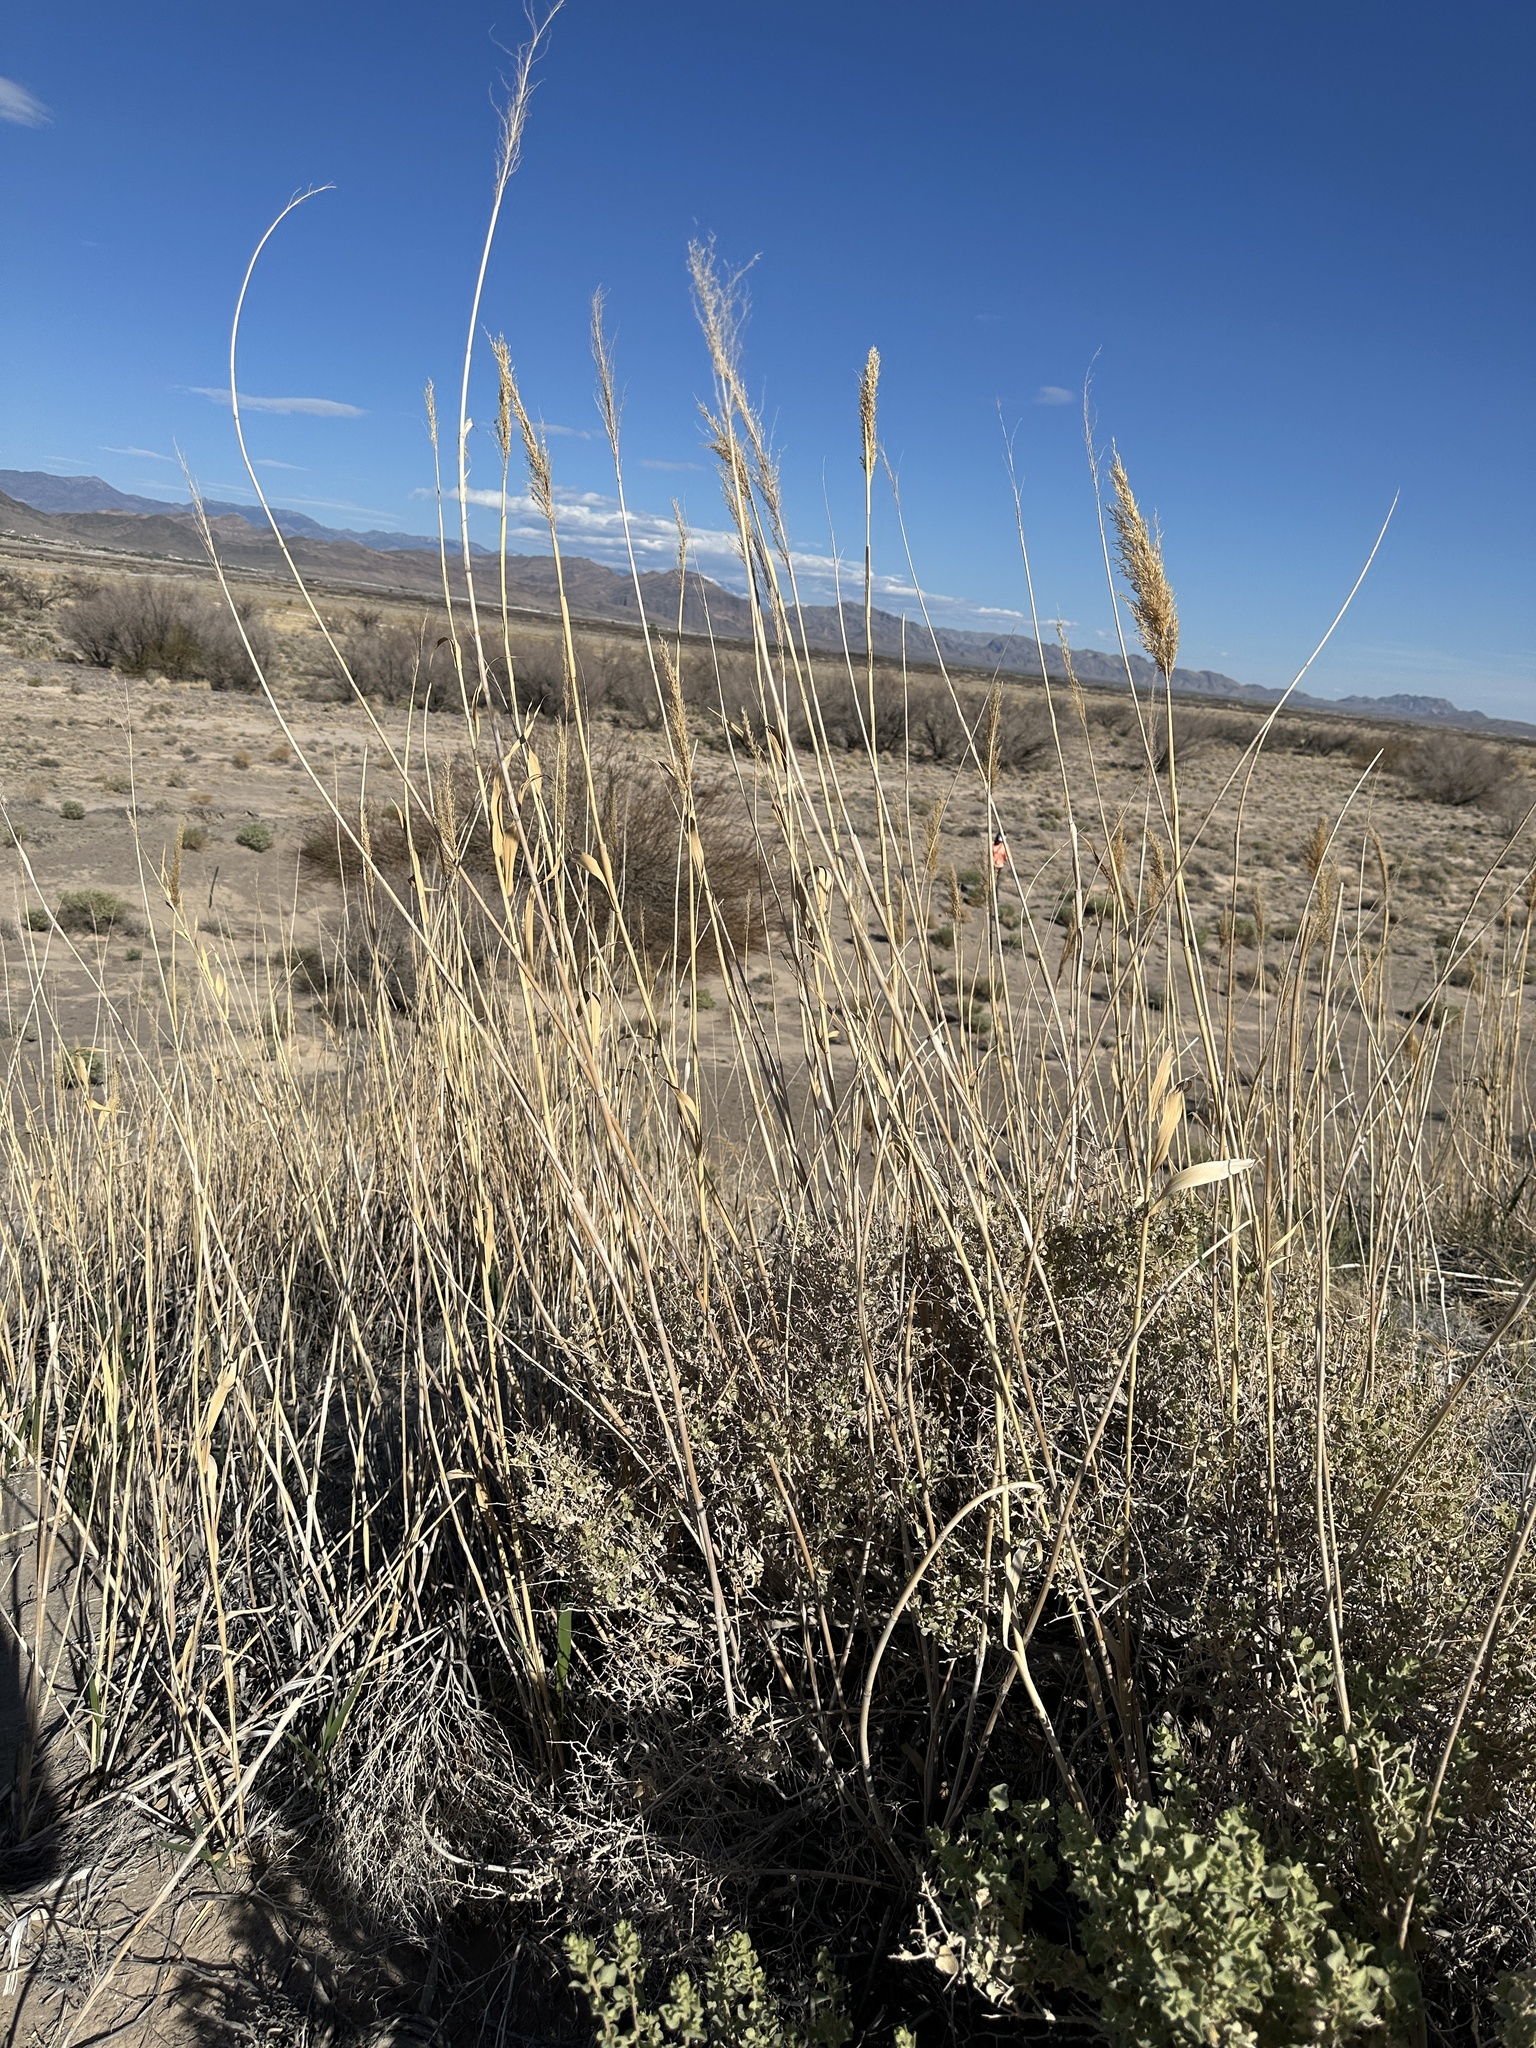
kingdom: Plantae
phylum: Tracheophyta
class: Liliopsida
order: Poales
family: Poaceae
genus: Phragmites
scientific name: Phragmites australis
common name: Common reed
